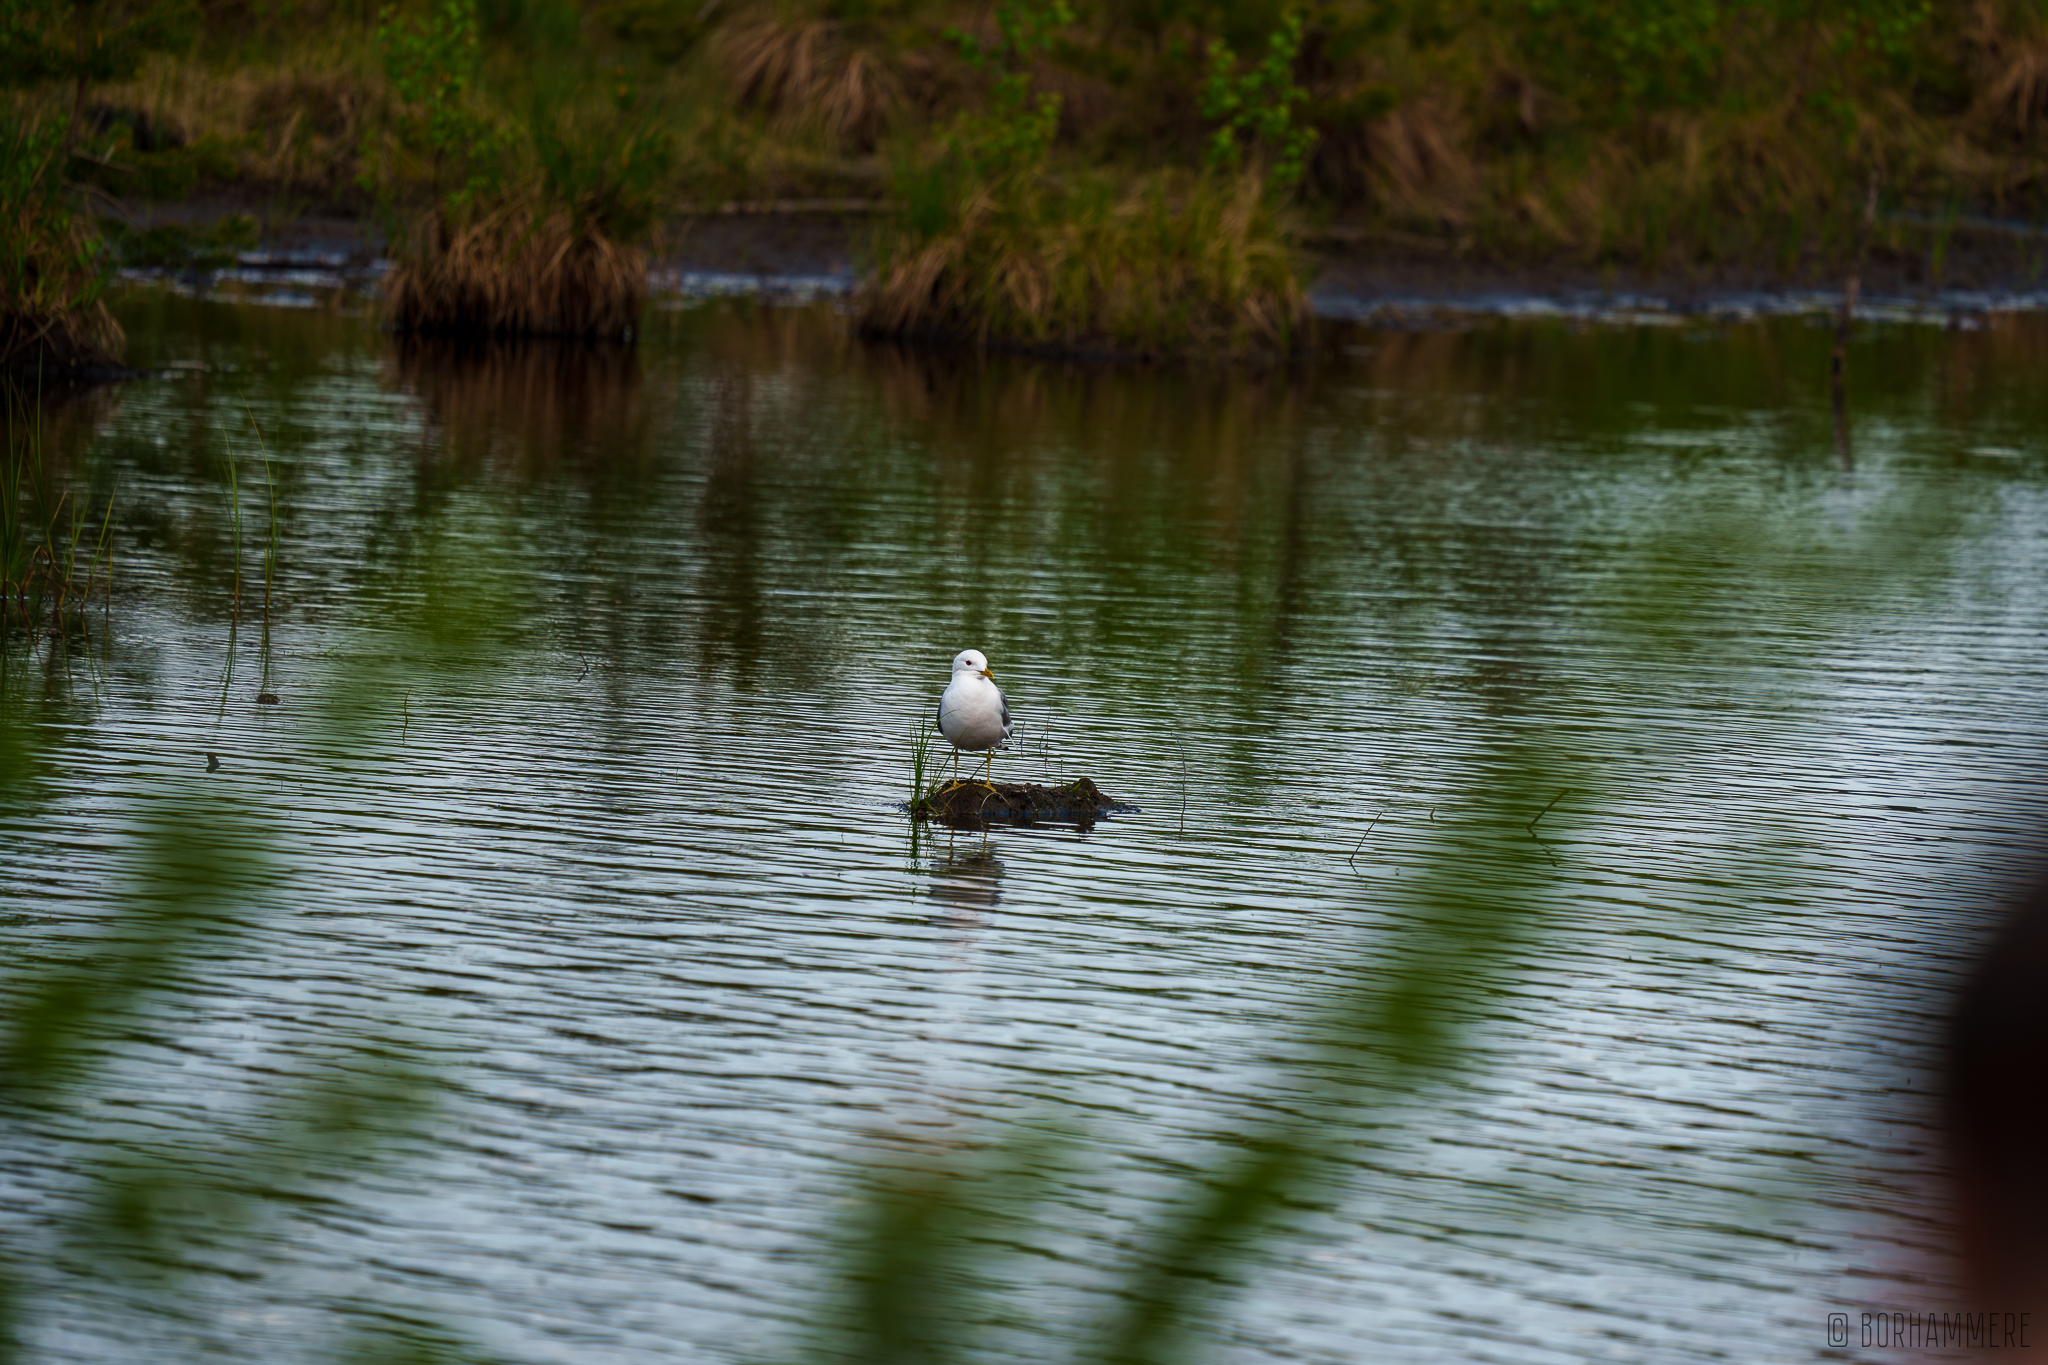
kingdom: Animalia
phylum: Chordata
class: Aves
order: Charadriiformes
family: Laridae
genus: Larus
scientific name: Larus canus
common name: Mew gull
